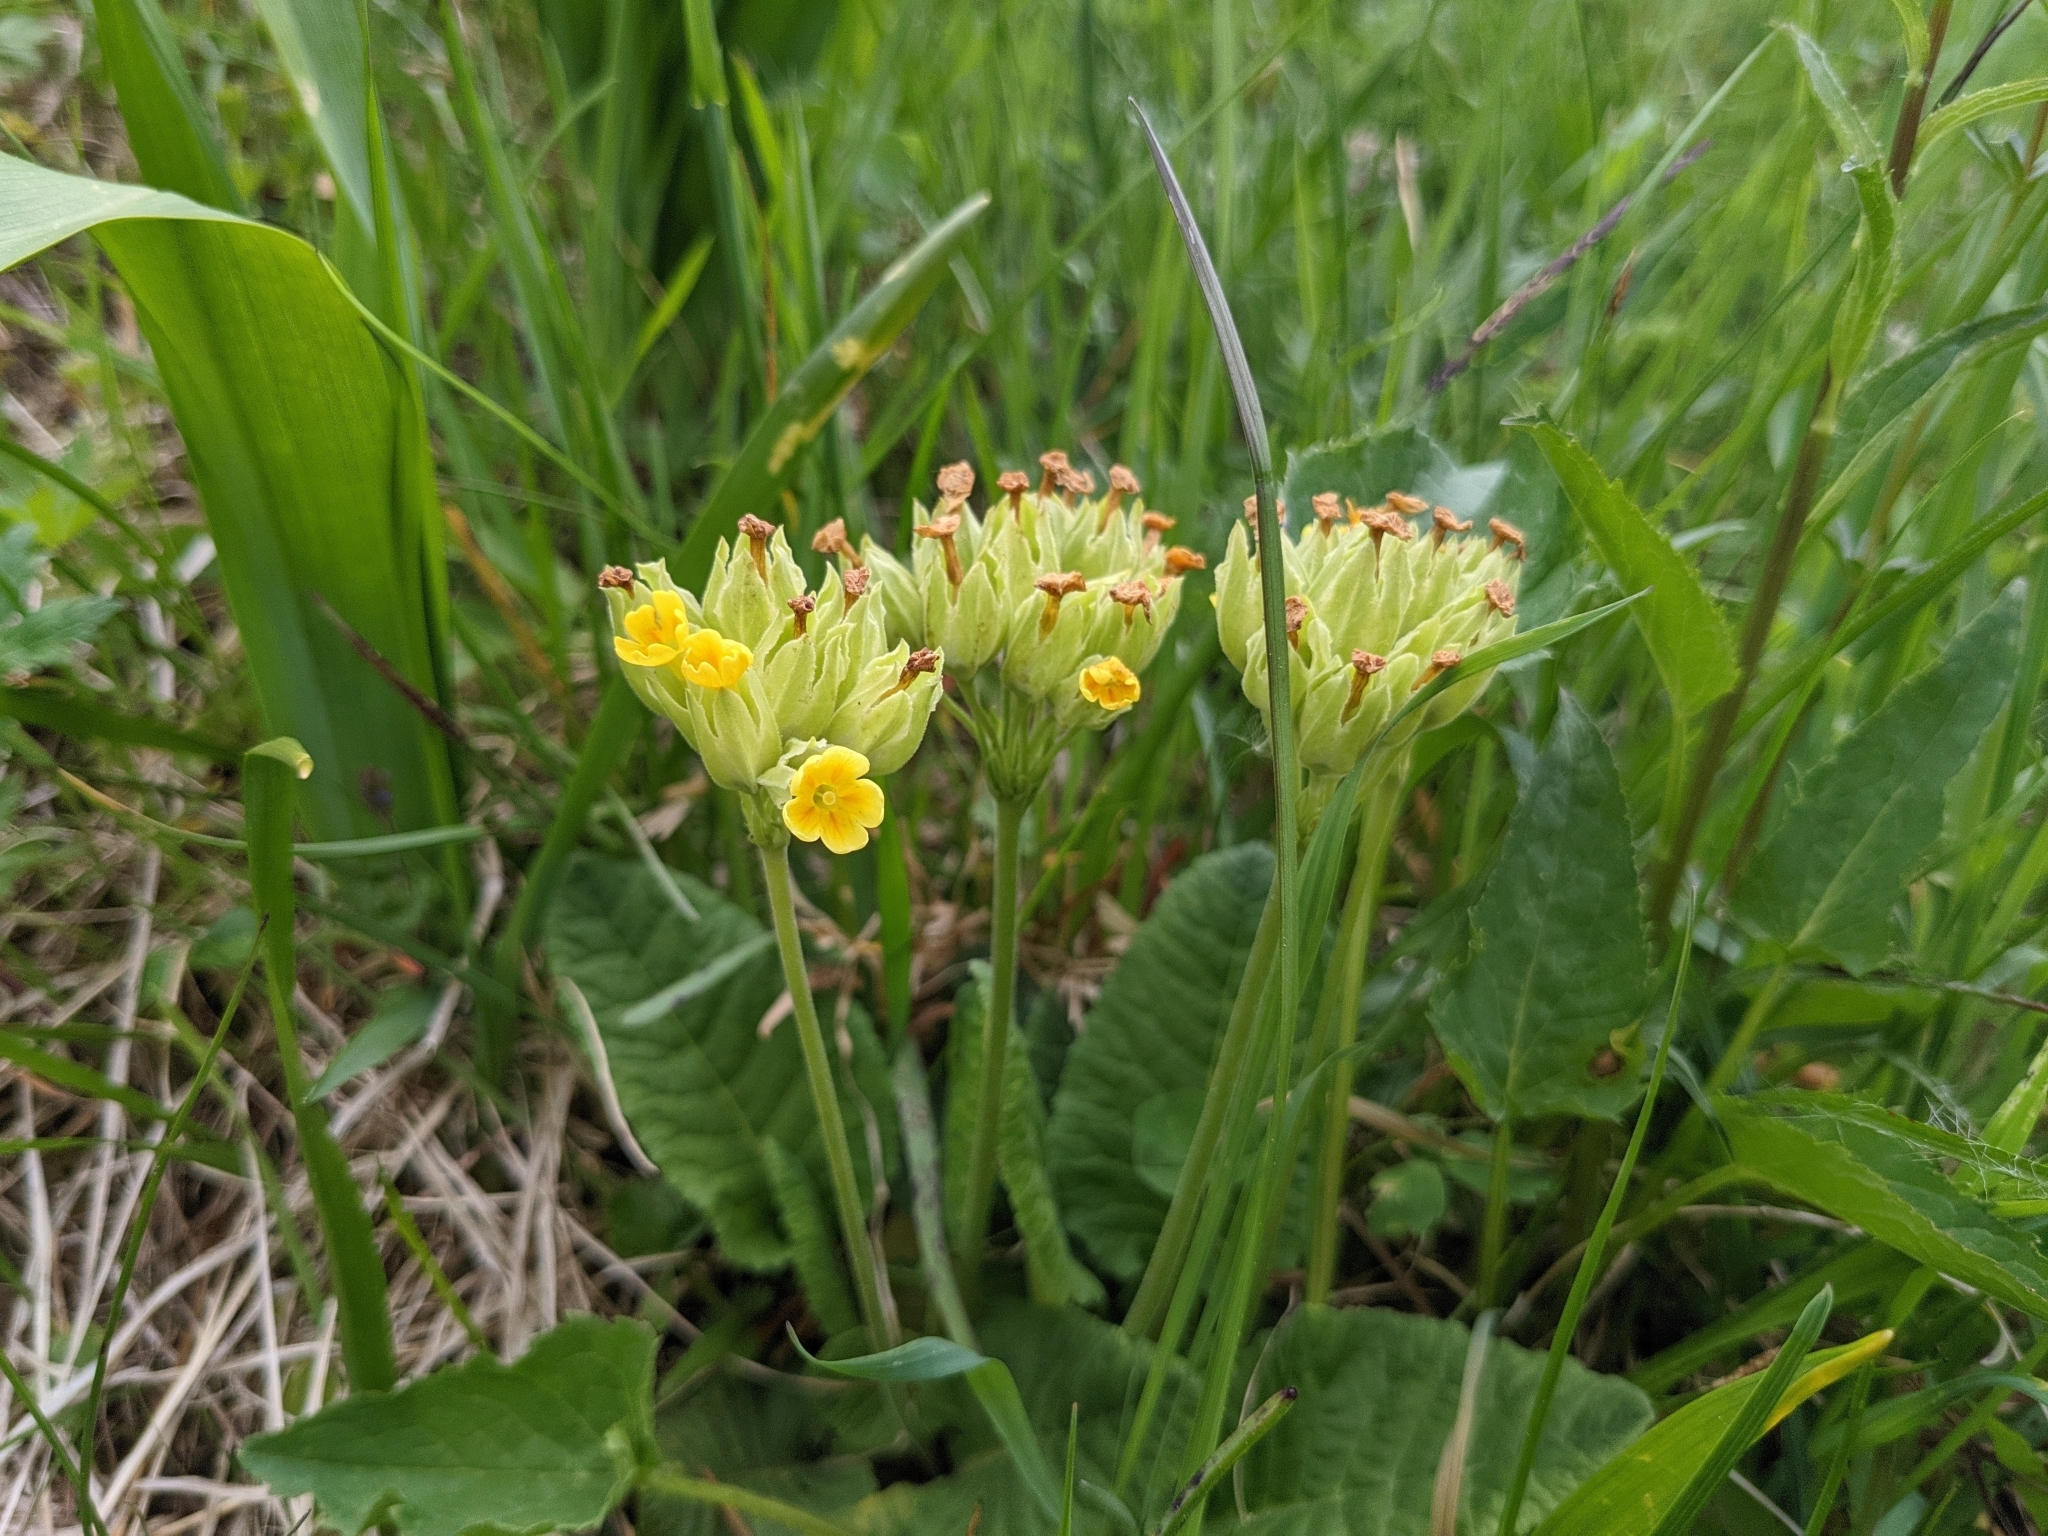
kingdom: Plantae
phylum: Tracheophyta
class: Magnoliopsida
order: Ericales
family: Primulaceae
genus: Primula
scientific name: Primula veris
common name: Cowslip
